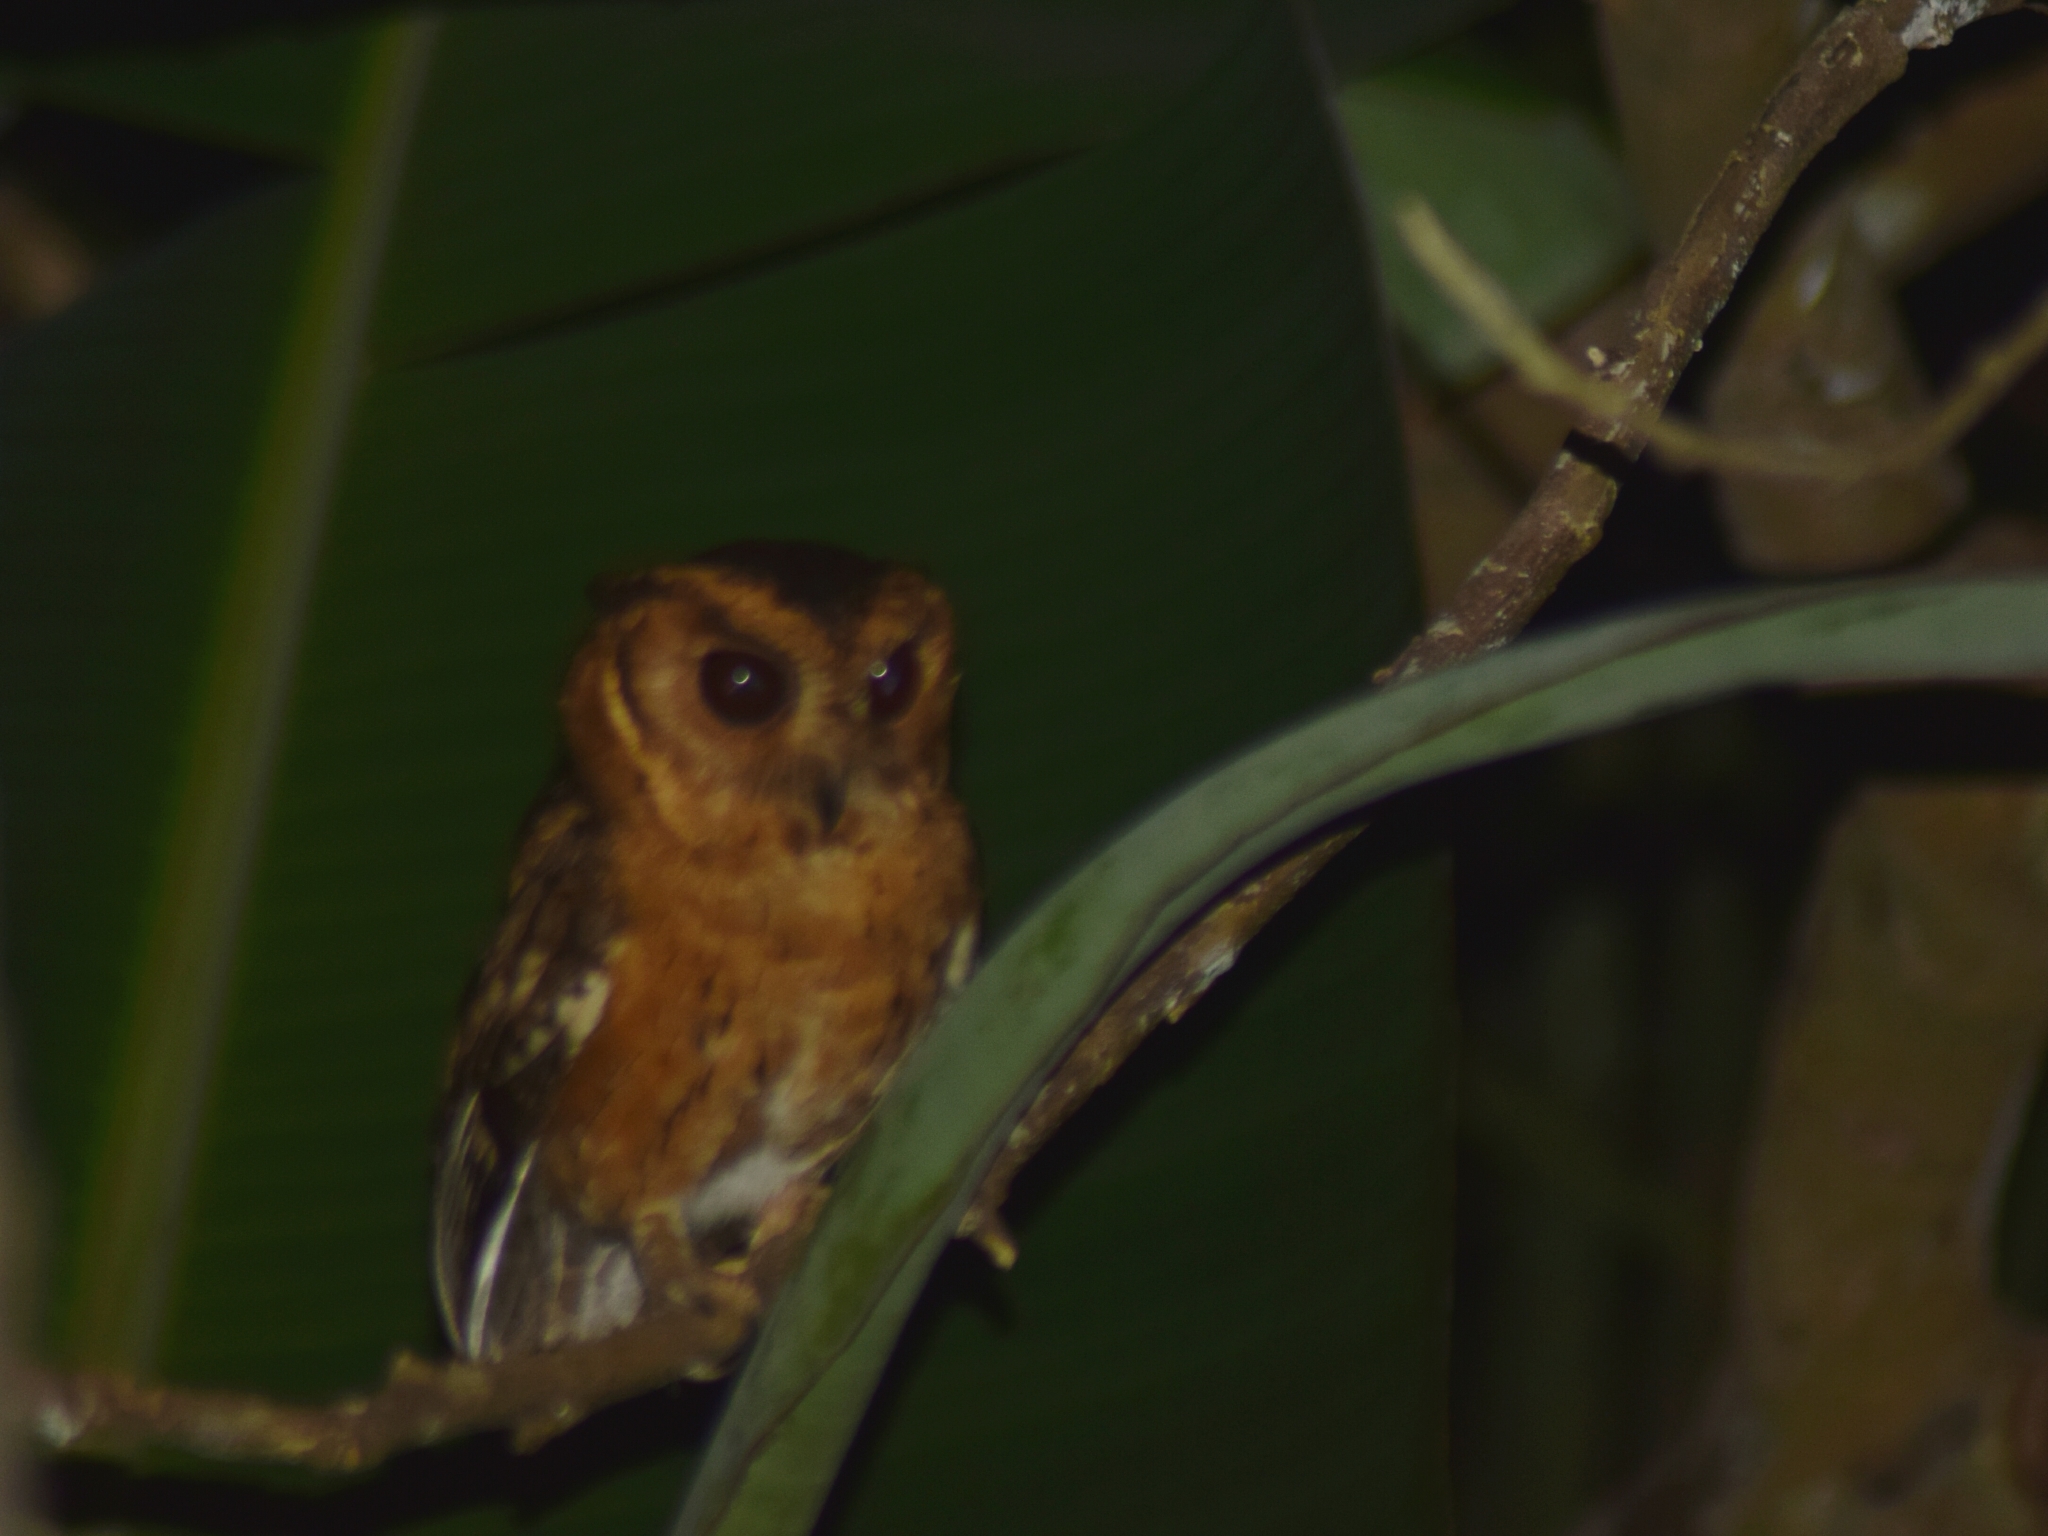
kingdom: Animalia
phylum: Chordata
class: Aves
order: Strigiformes
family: Strigidae
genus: Otus
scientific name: Otus bakkamoena
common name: Indian scops owl
